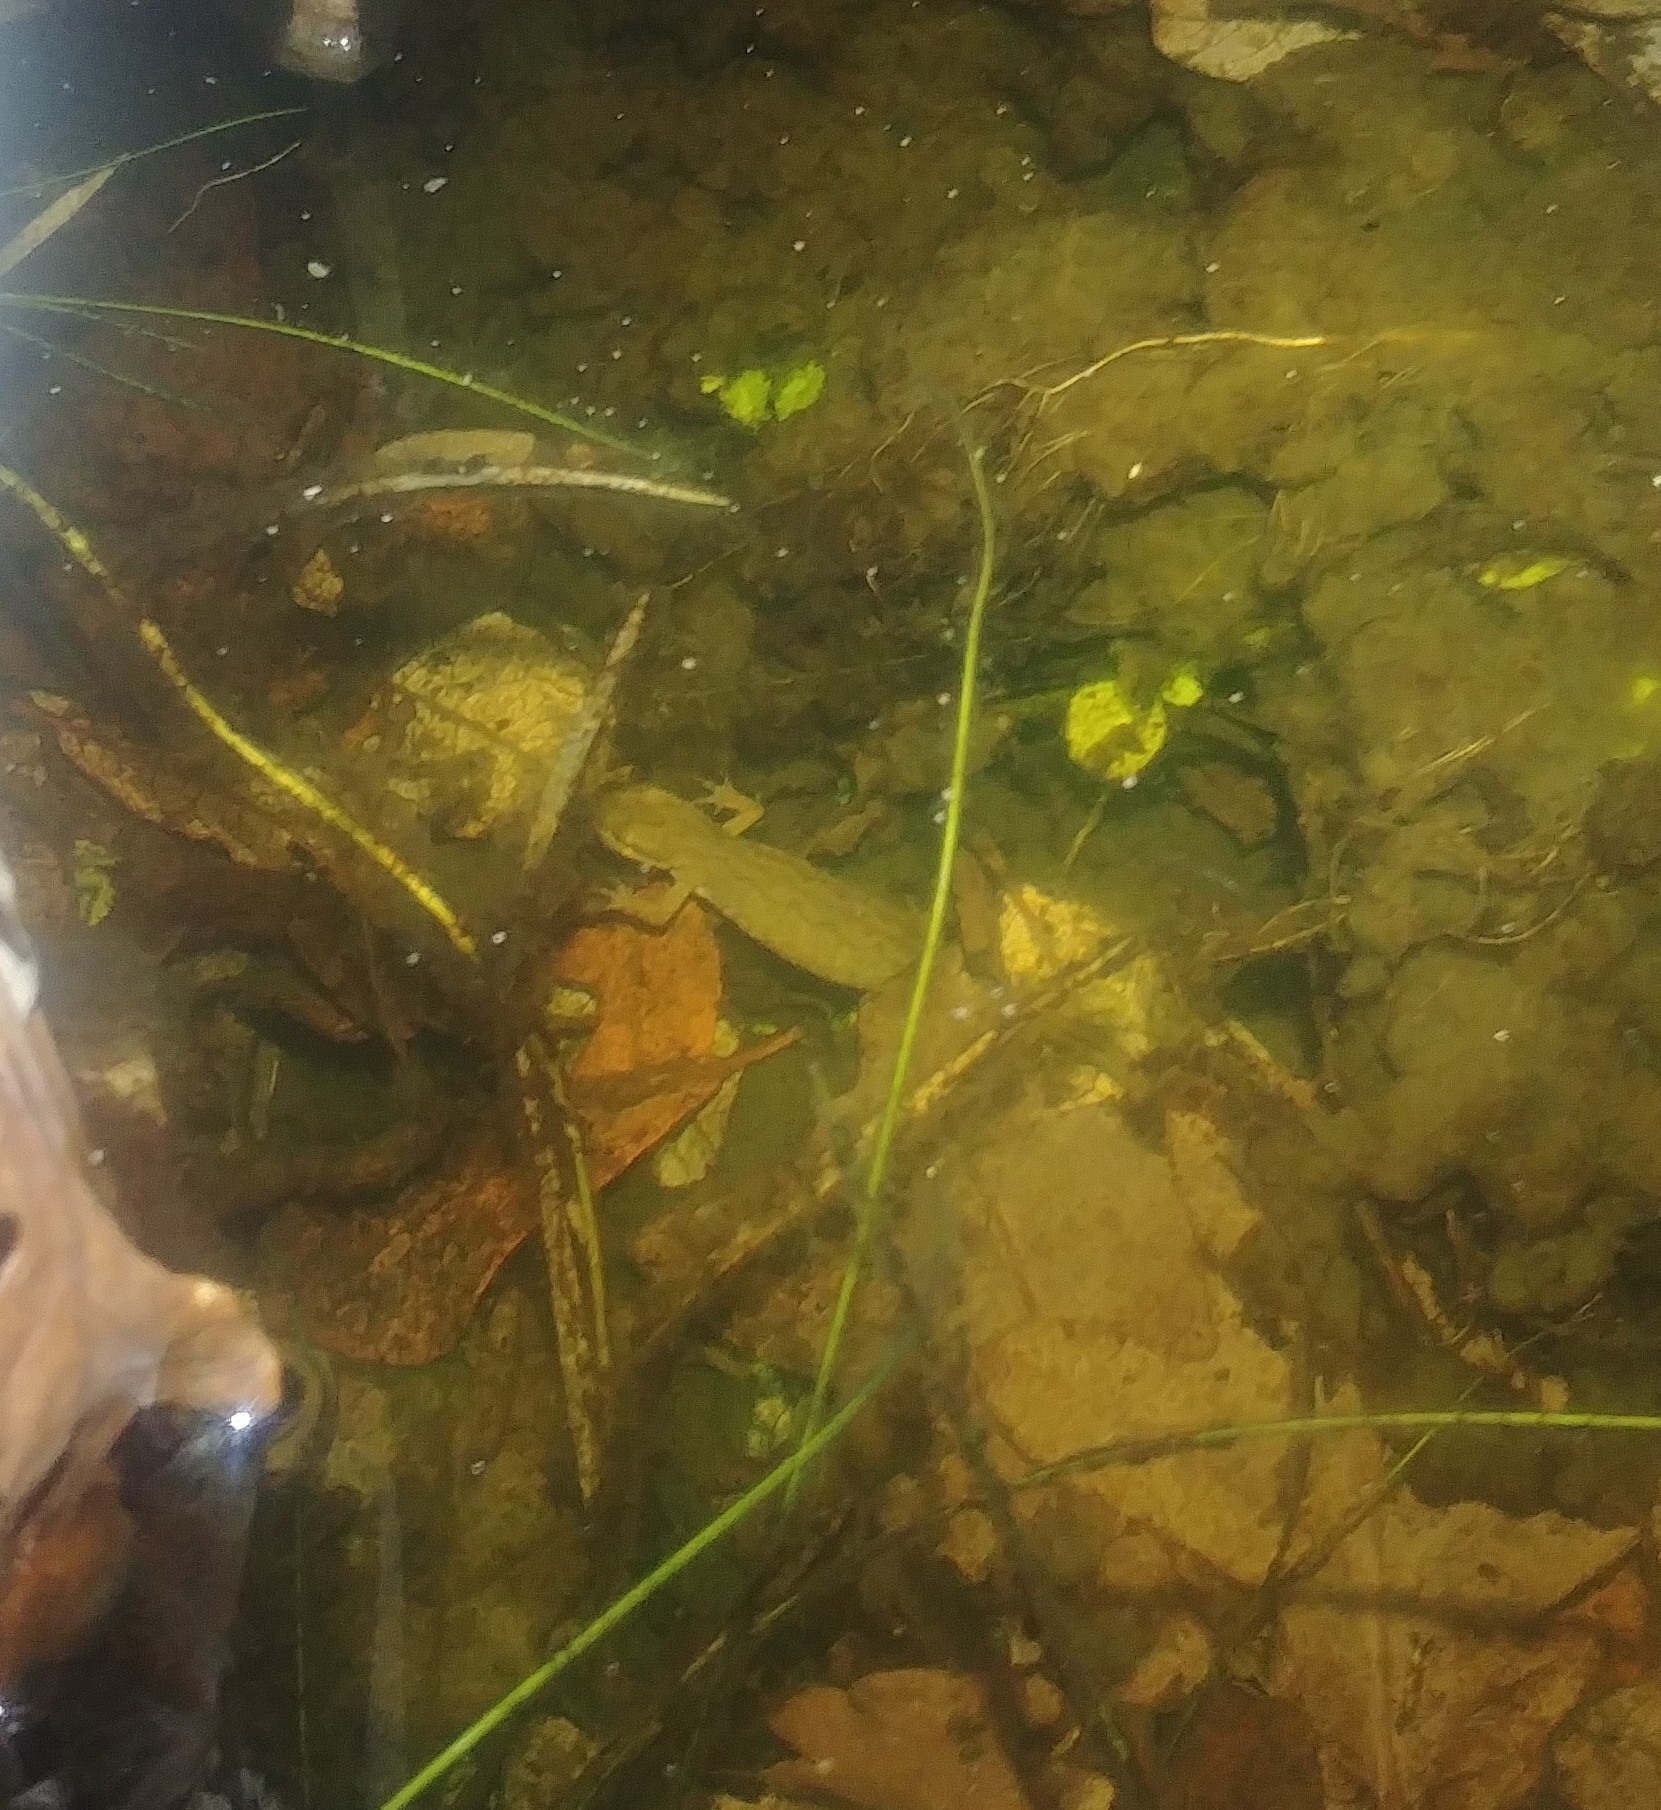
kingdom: Animalia
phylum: Chordata
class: Amphibia
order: Caudata
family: Salamandridae
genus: Lissotriton
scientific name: Lissotriton helveticus
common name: Palmate newt
